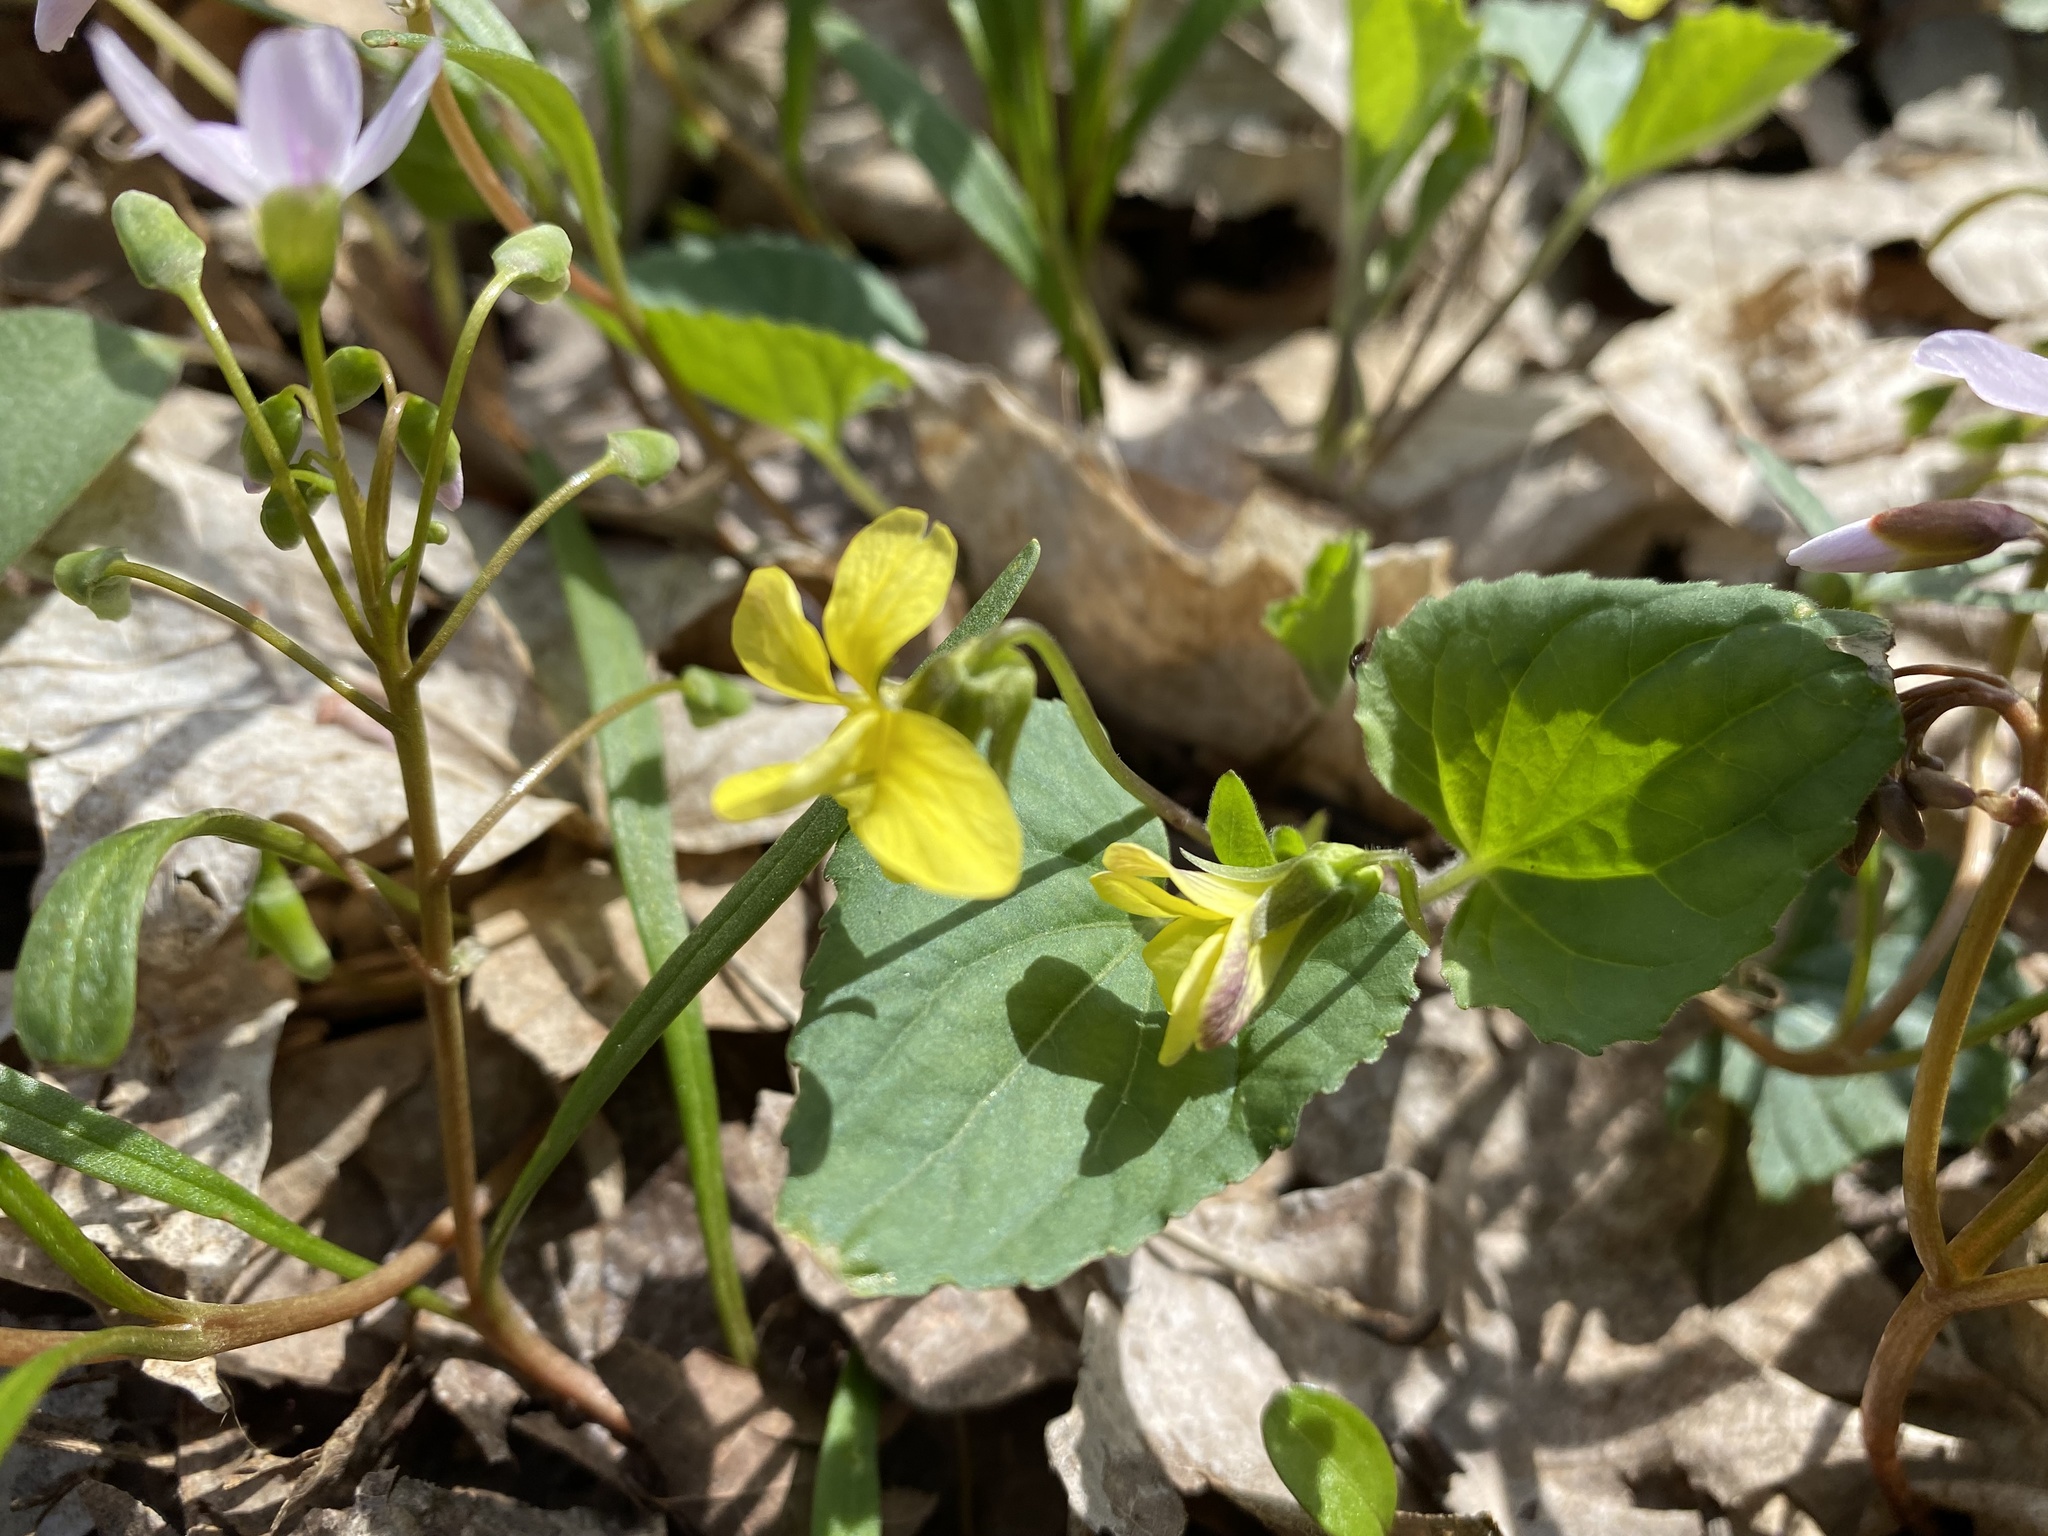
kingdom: Plantae
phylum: Tracheophyta
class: Magnoliopsida
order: Malpighiales
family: Violaceae
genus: Viola
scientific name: Viola eriocarpa
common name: Smooth yellow violet
